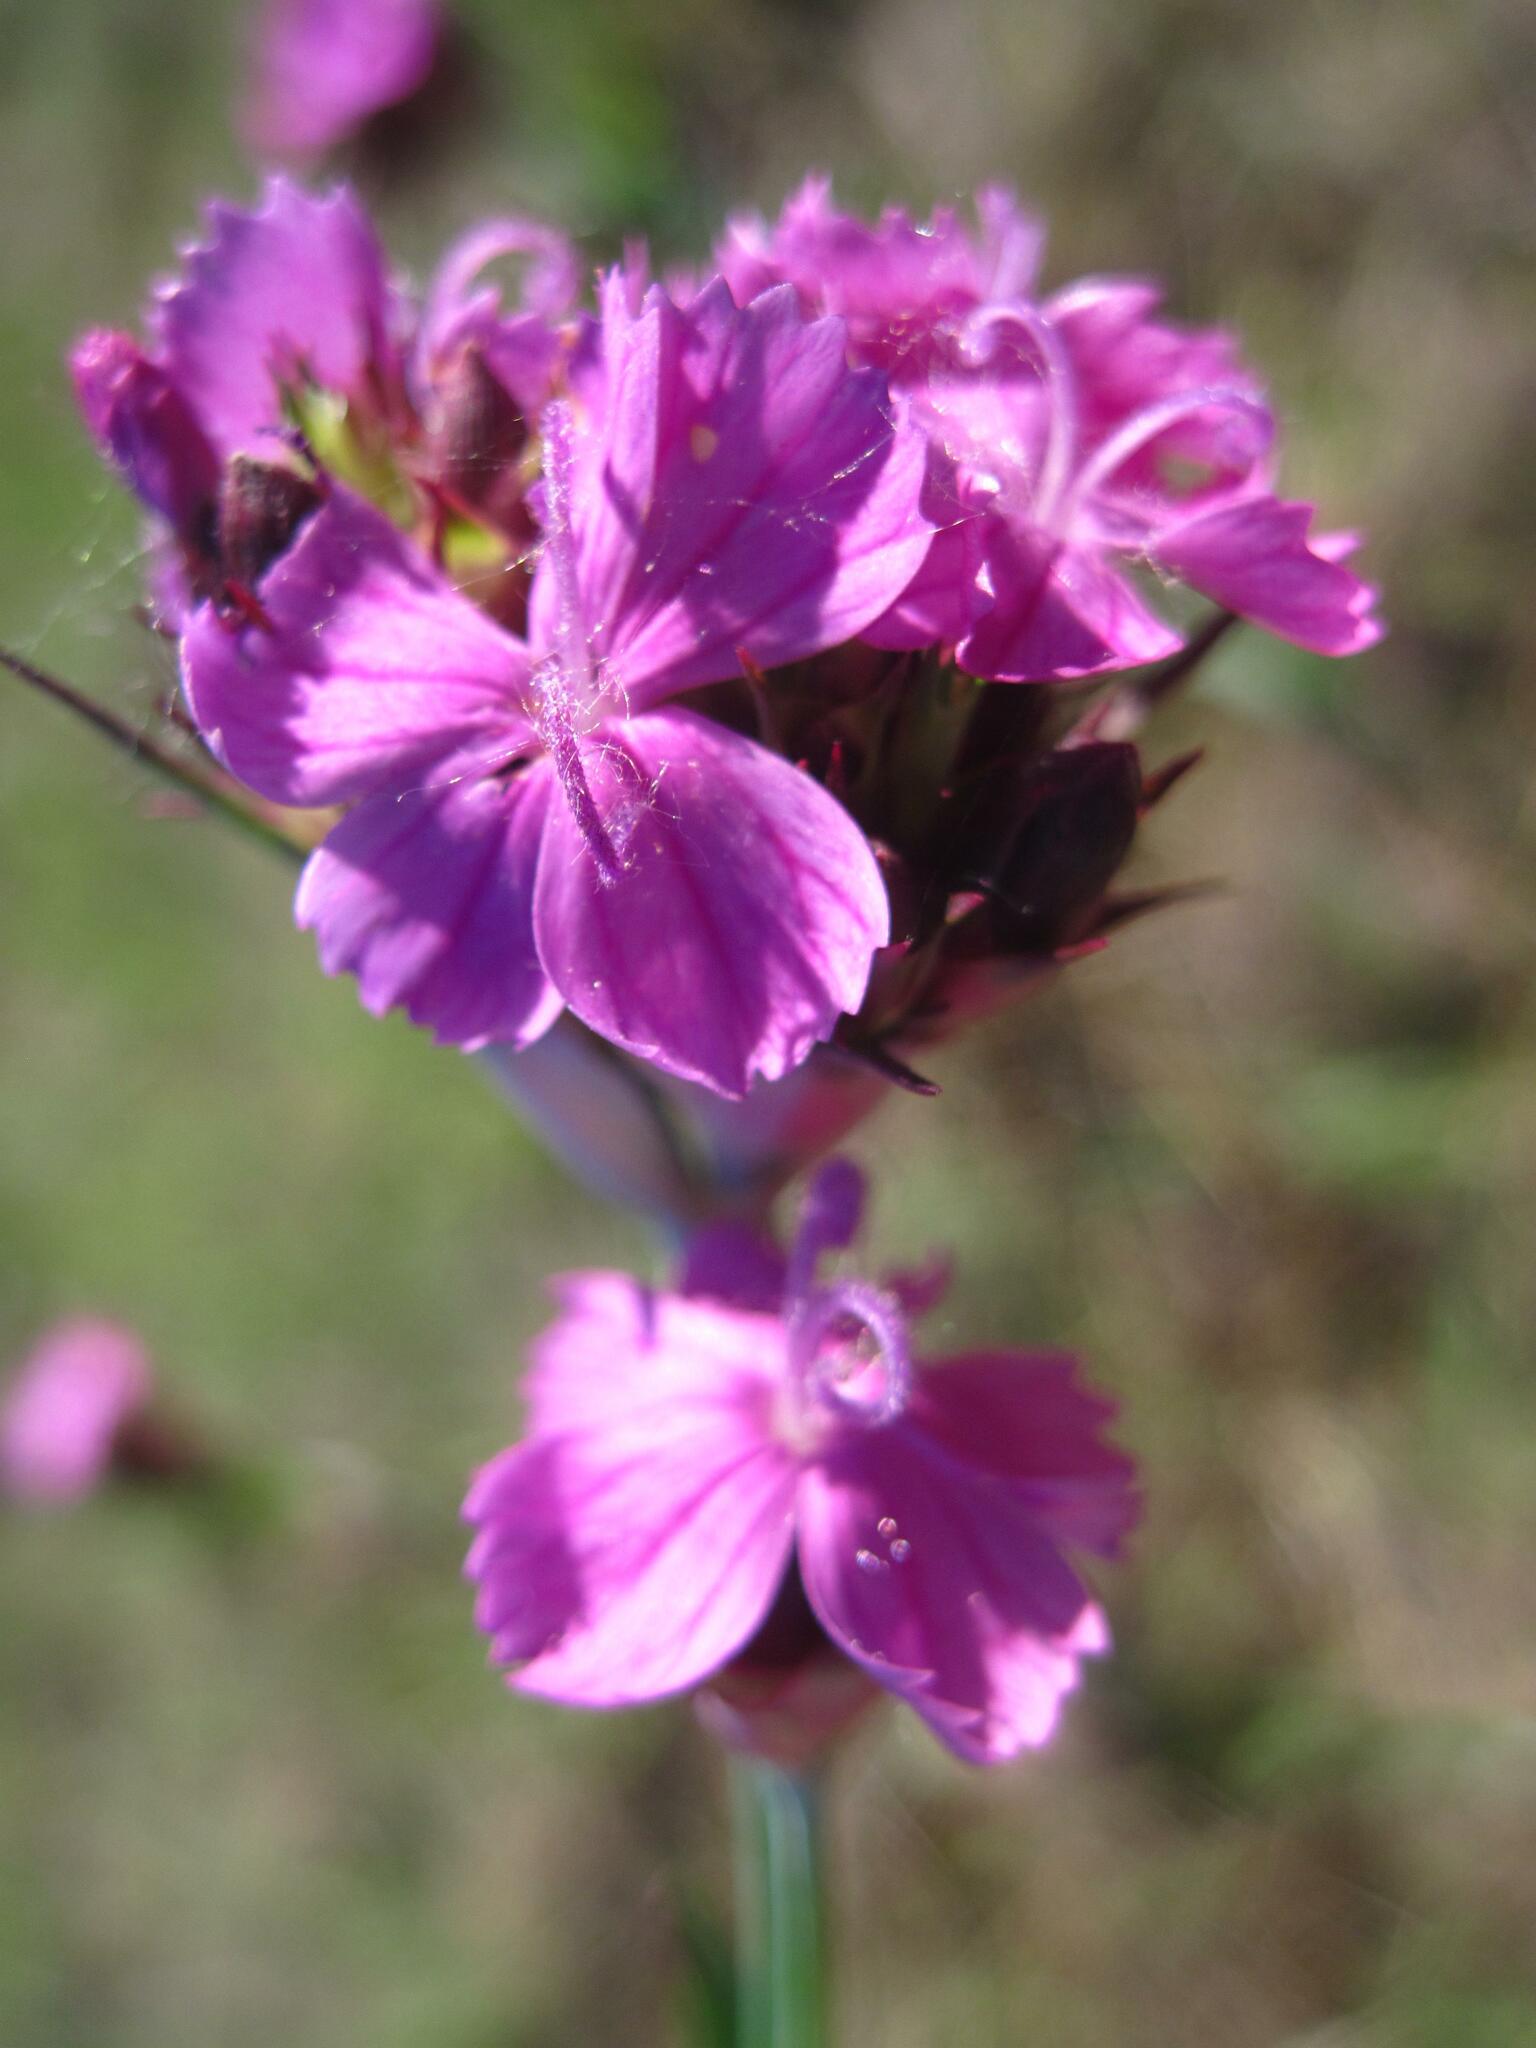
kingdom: Plantae
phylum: Tracheophyta
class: Magnoliopsida
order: Caryophyllales
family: Caryophyllaceae
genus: Dianthus
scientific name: Dianthus capitatus
